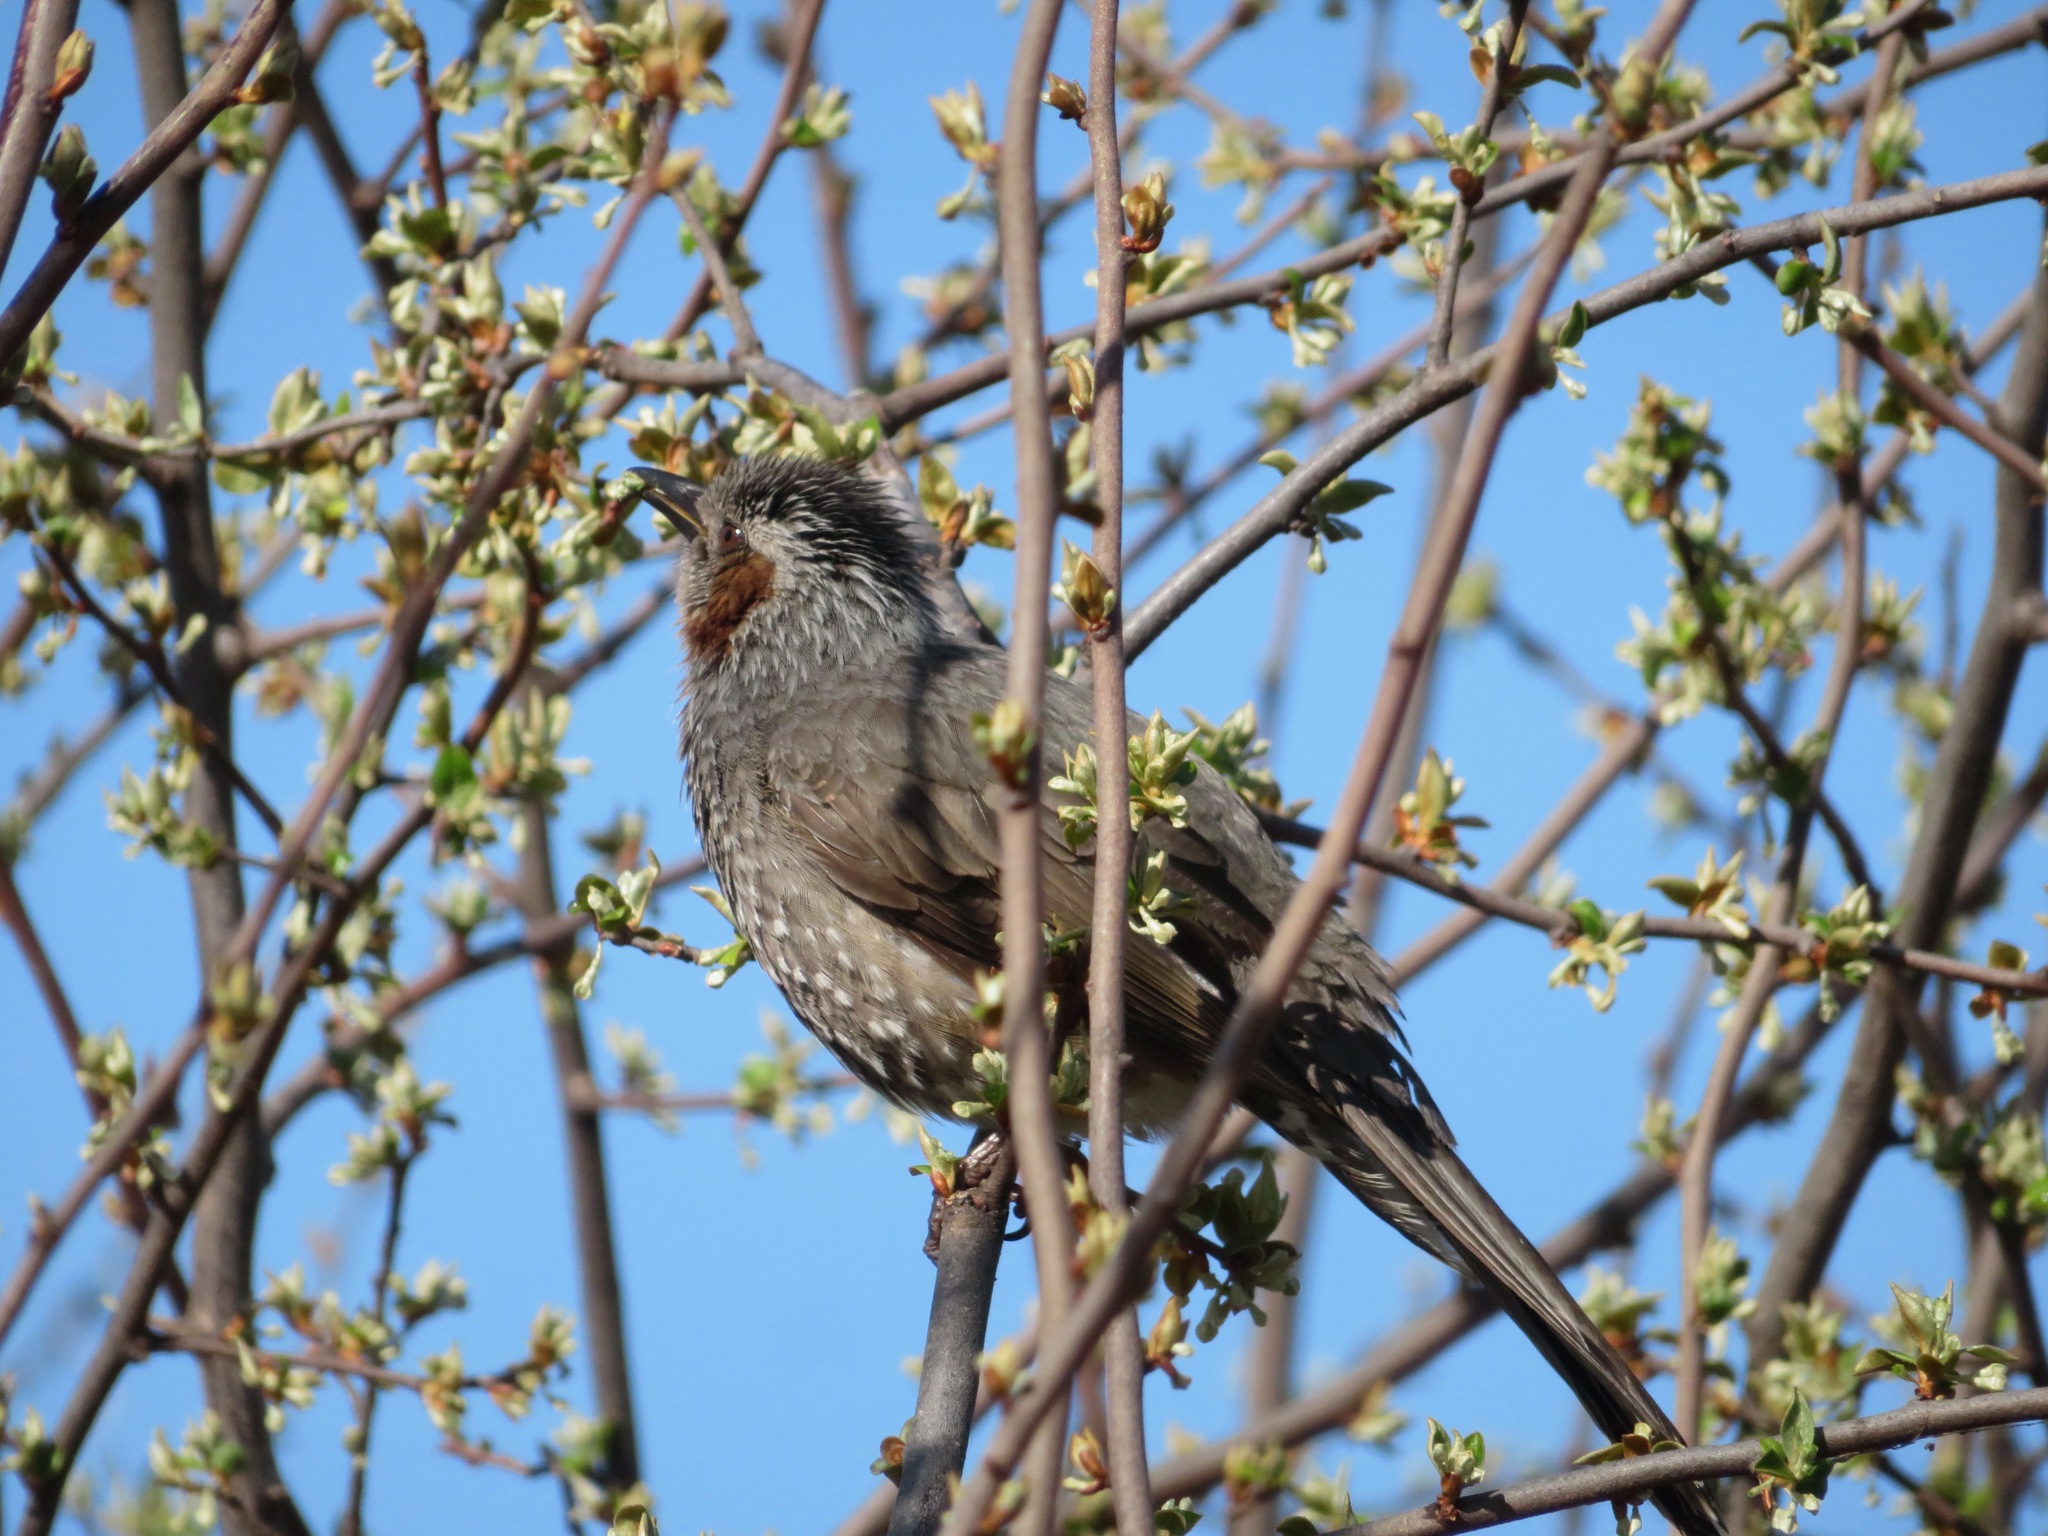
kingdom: Animalia
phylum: Chordata
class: Aves
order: Passeriformes
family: Pycnonotidae
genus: Hypsipetes
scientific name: Hypsipetes amaurotis
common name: Brown-eared bulbul
